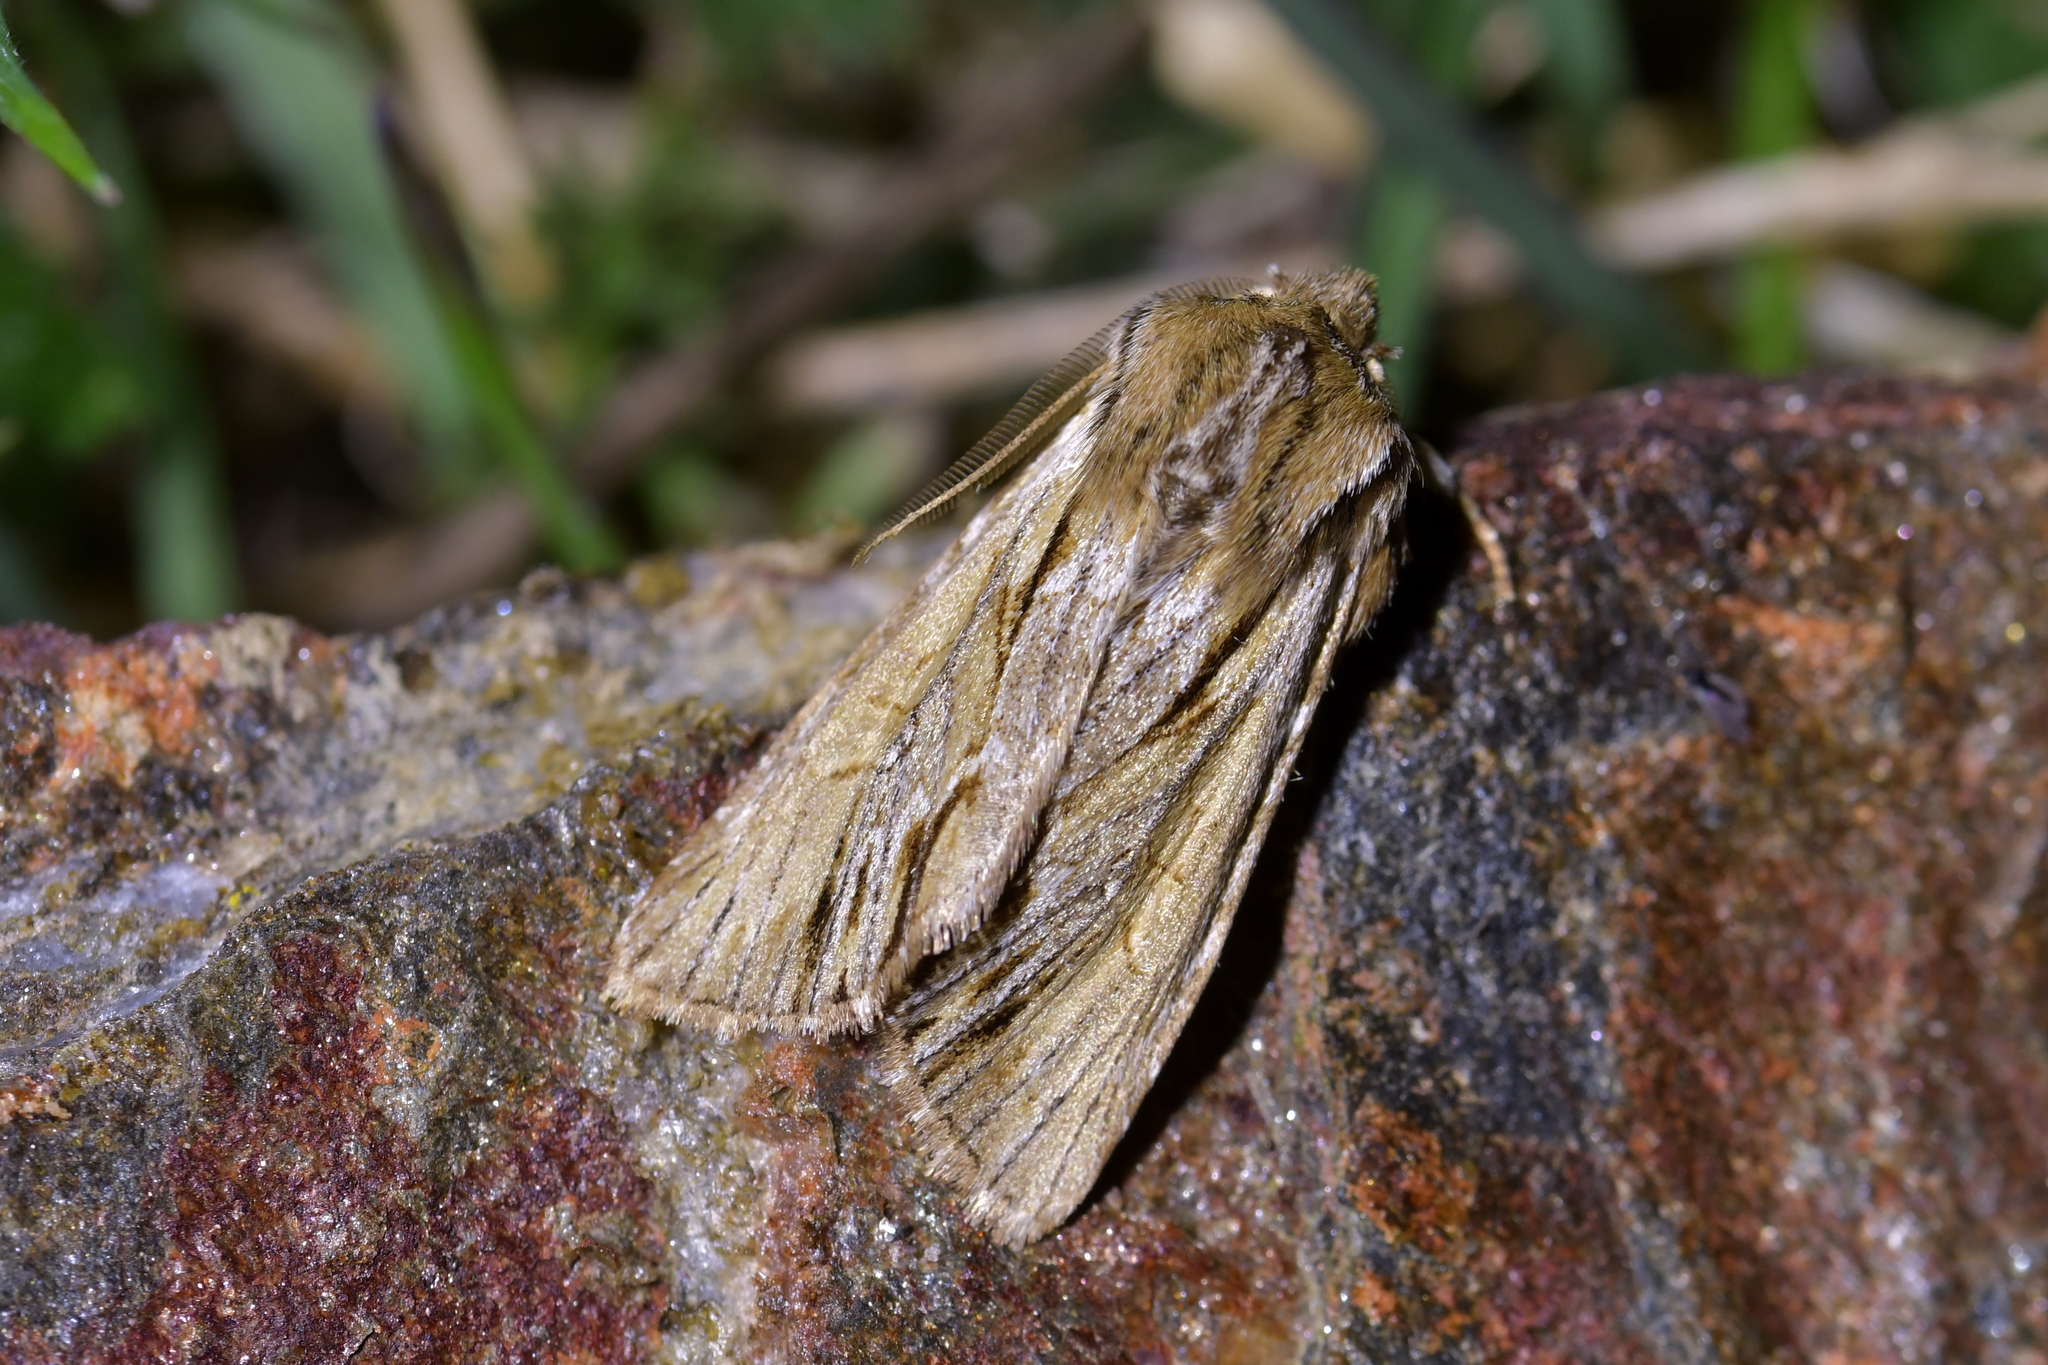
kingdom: Animalia
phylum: Arthropoda
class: Insecta
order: Lepidoptera
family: Noctuidae
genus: Ichneutica
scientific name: Ichneutica
